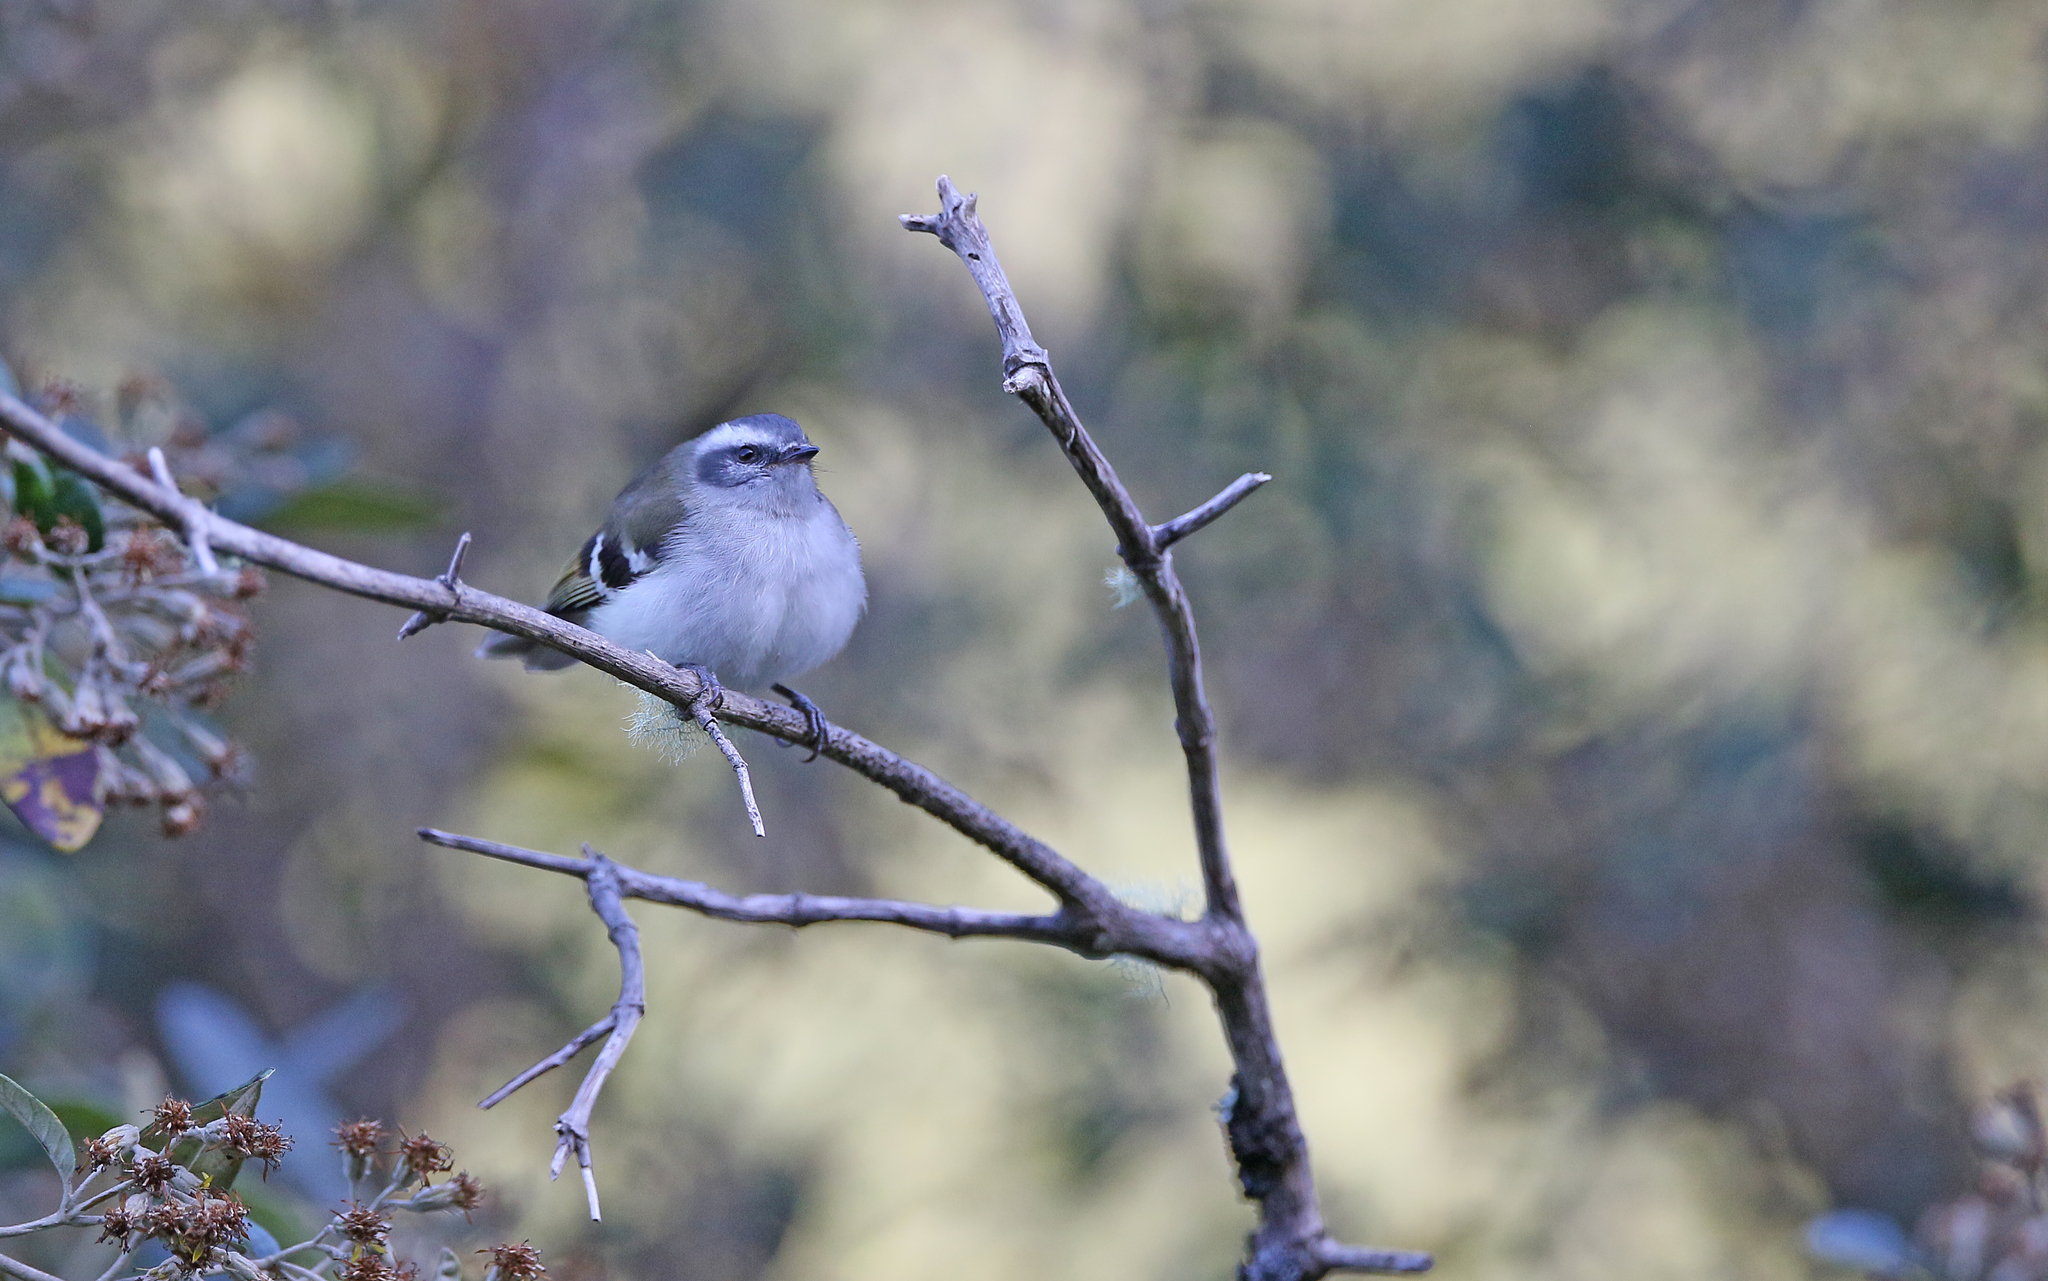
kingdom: Animalia
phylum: Chordata
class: Aves
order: Passeriformes
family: Tyrannidae
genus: Mecocerculus
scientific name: Mecocerculus stictopterus
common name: White-banded tyrannulet
